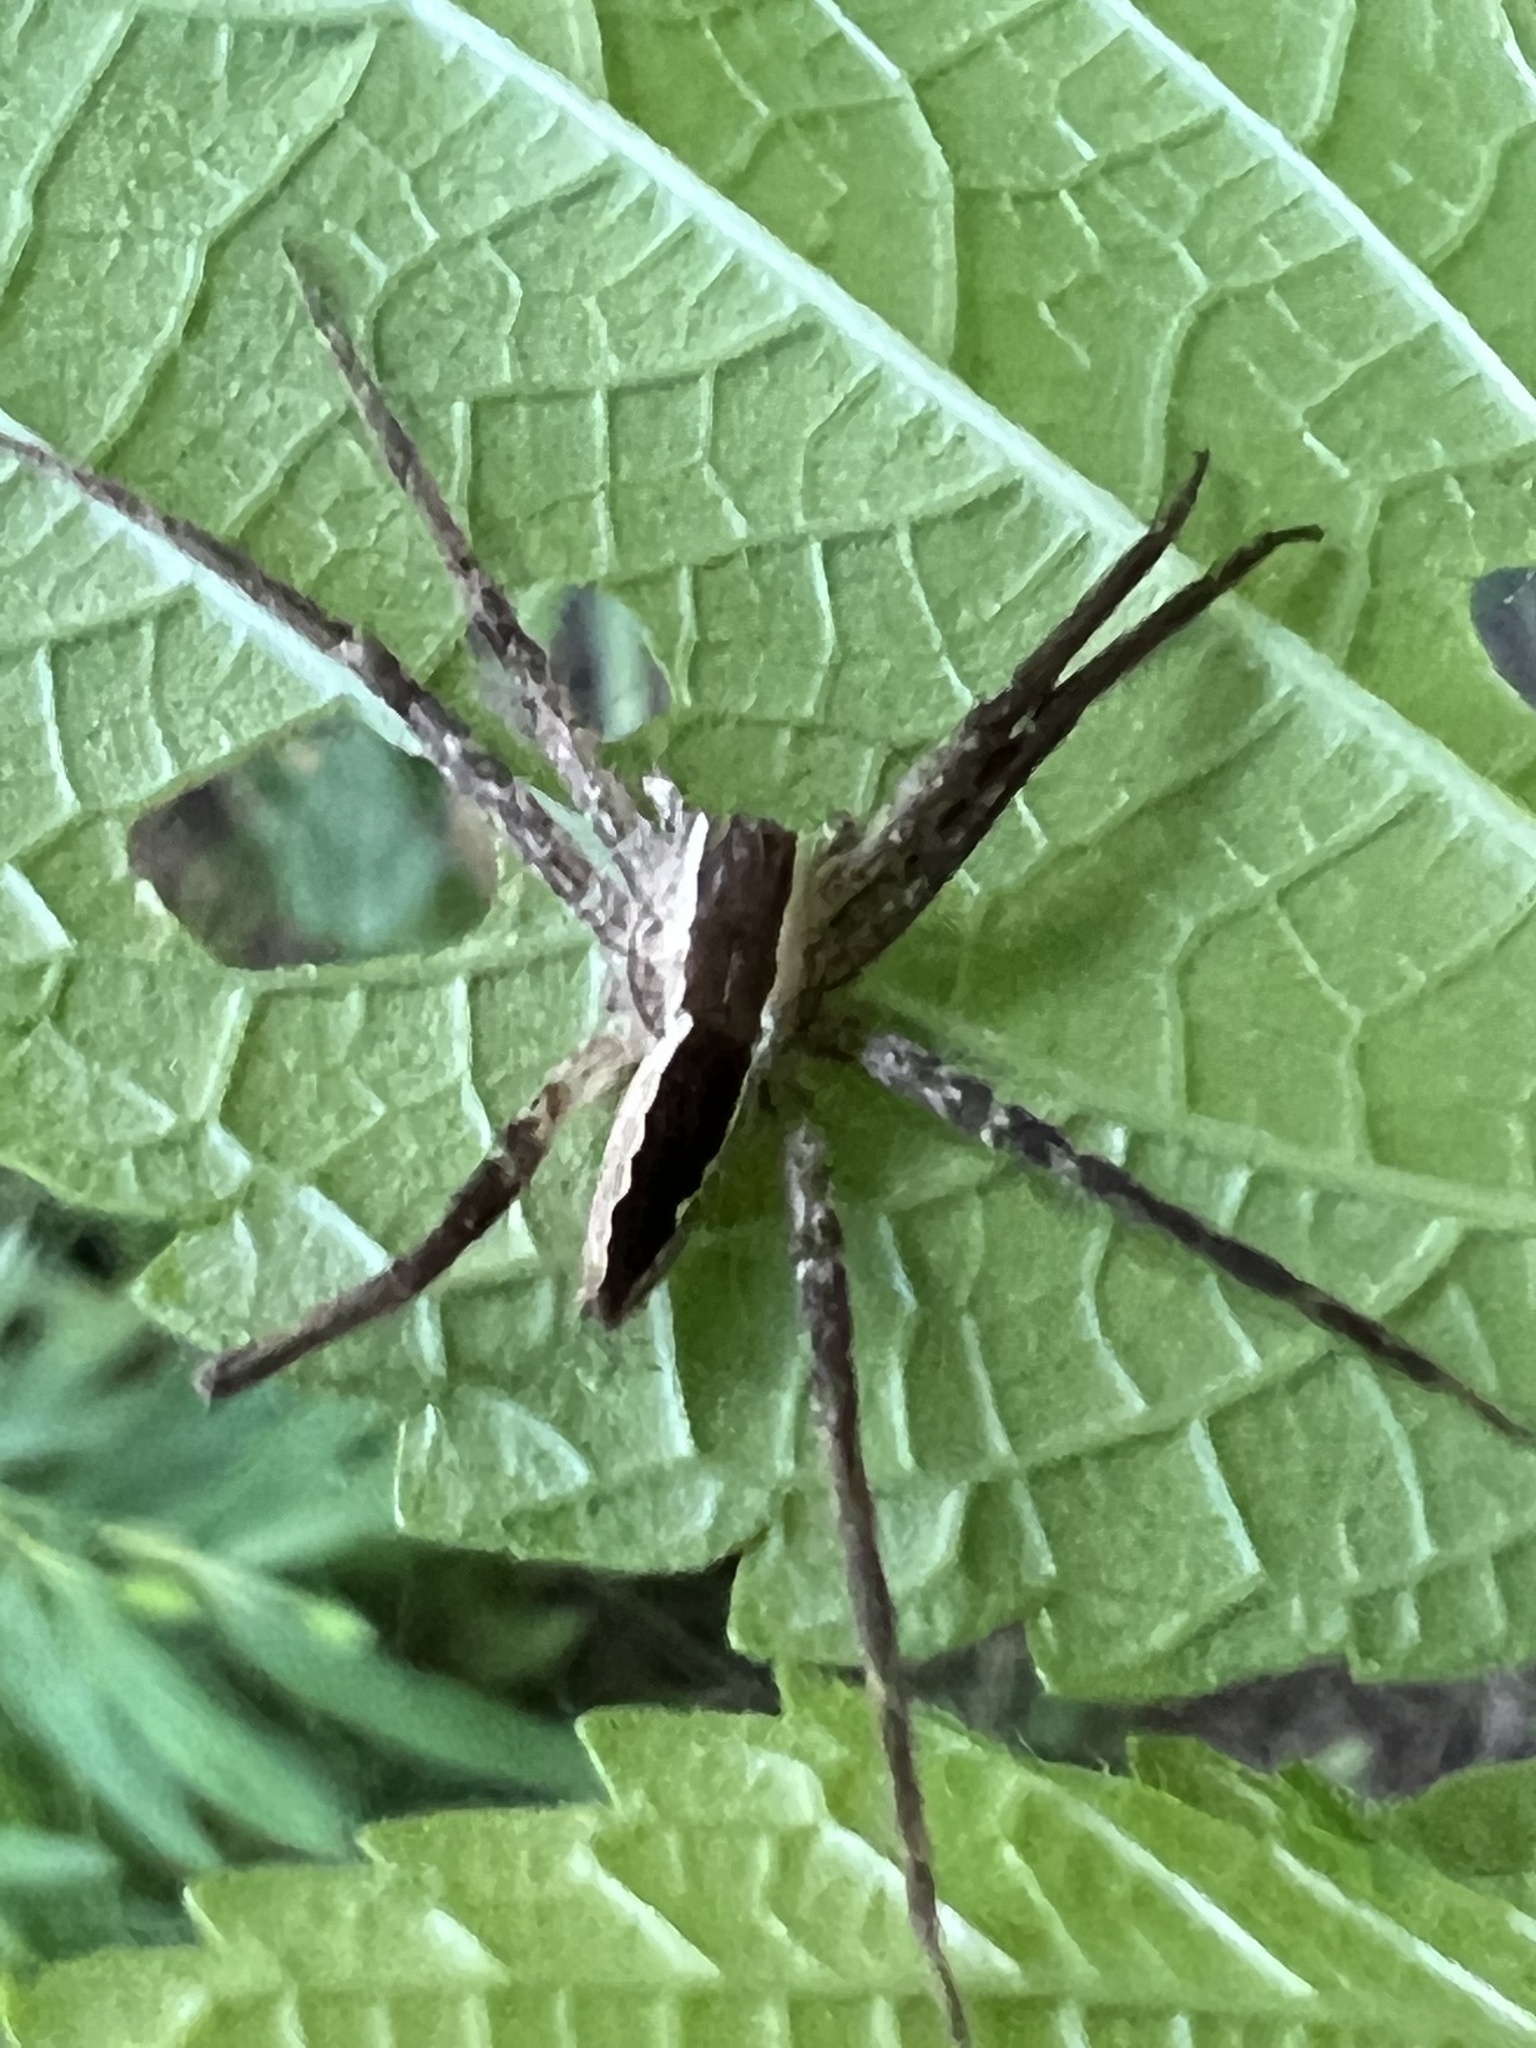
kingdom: Animalia
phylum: Arthropoda
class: Arachnida
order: Araneae
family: Pisauridae
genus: Pisaurina
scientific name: Pisaurina mira
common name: American nursery web spider
